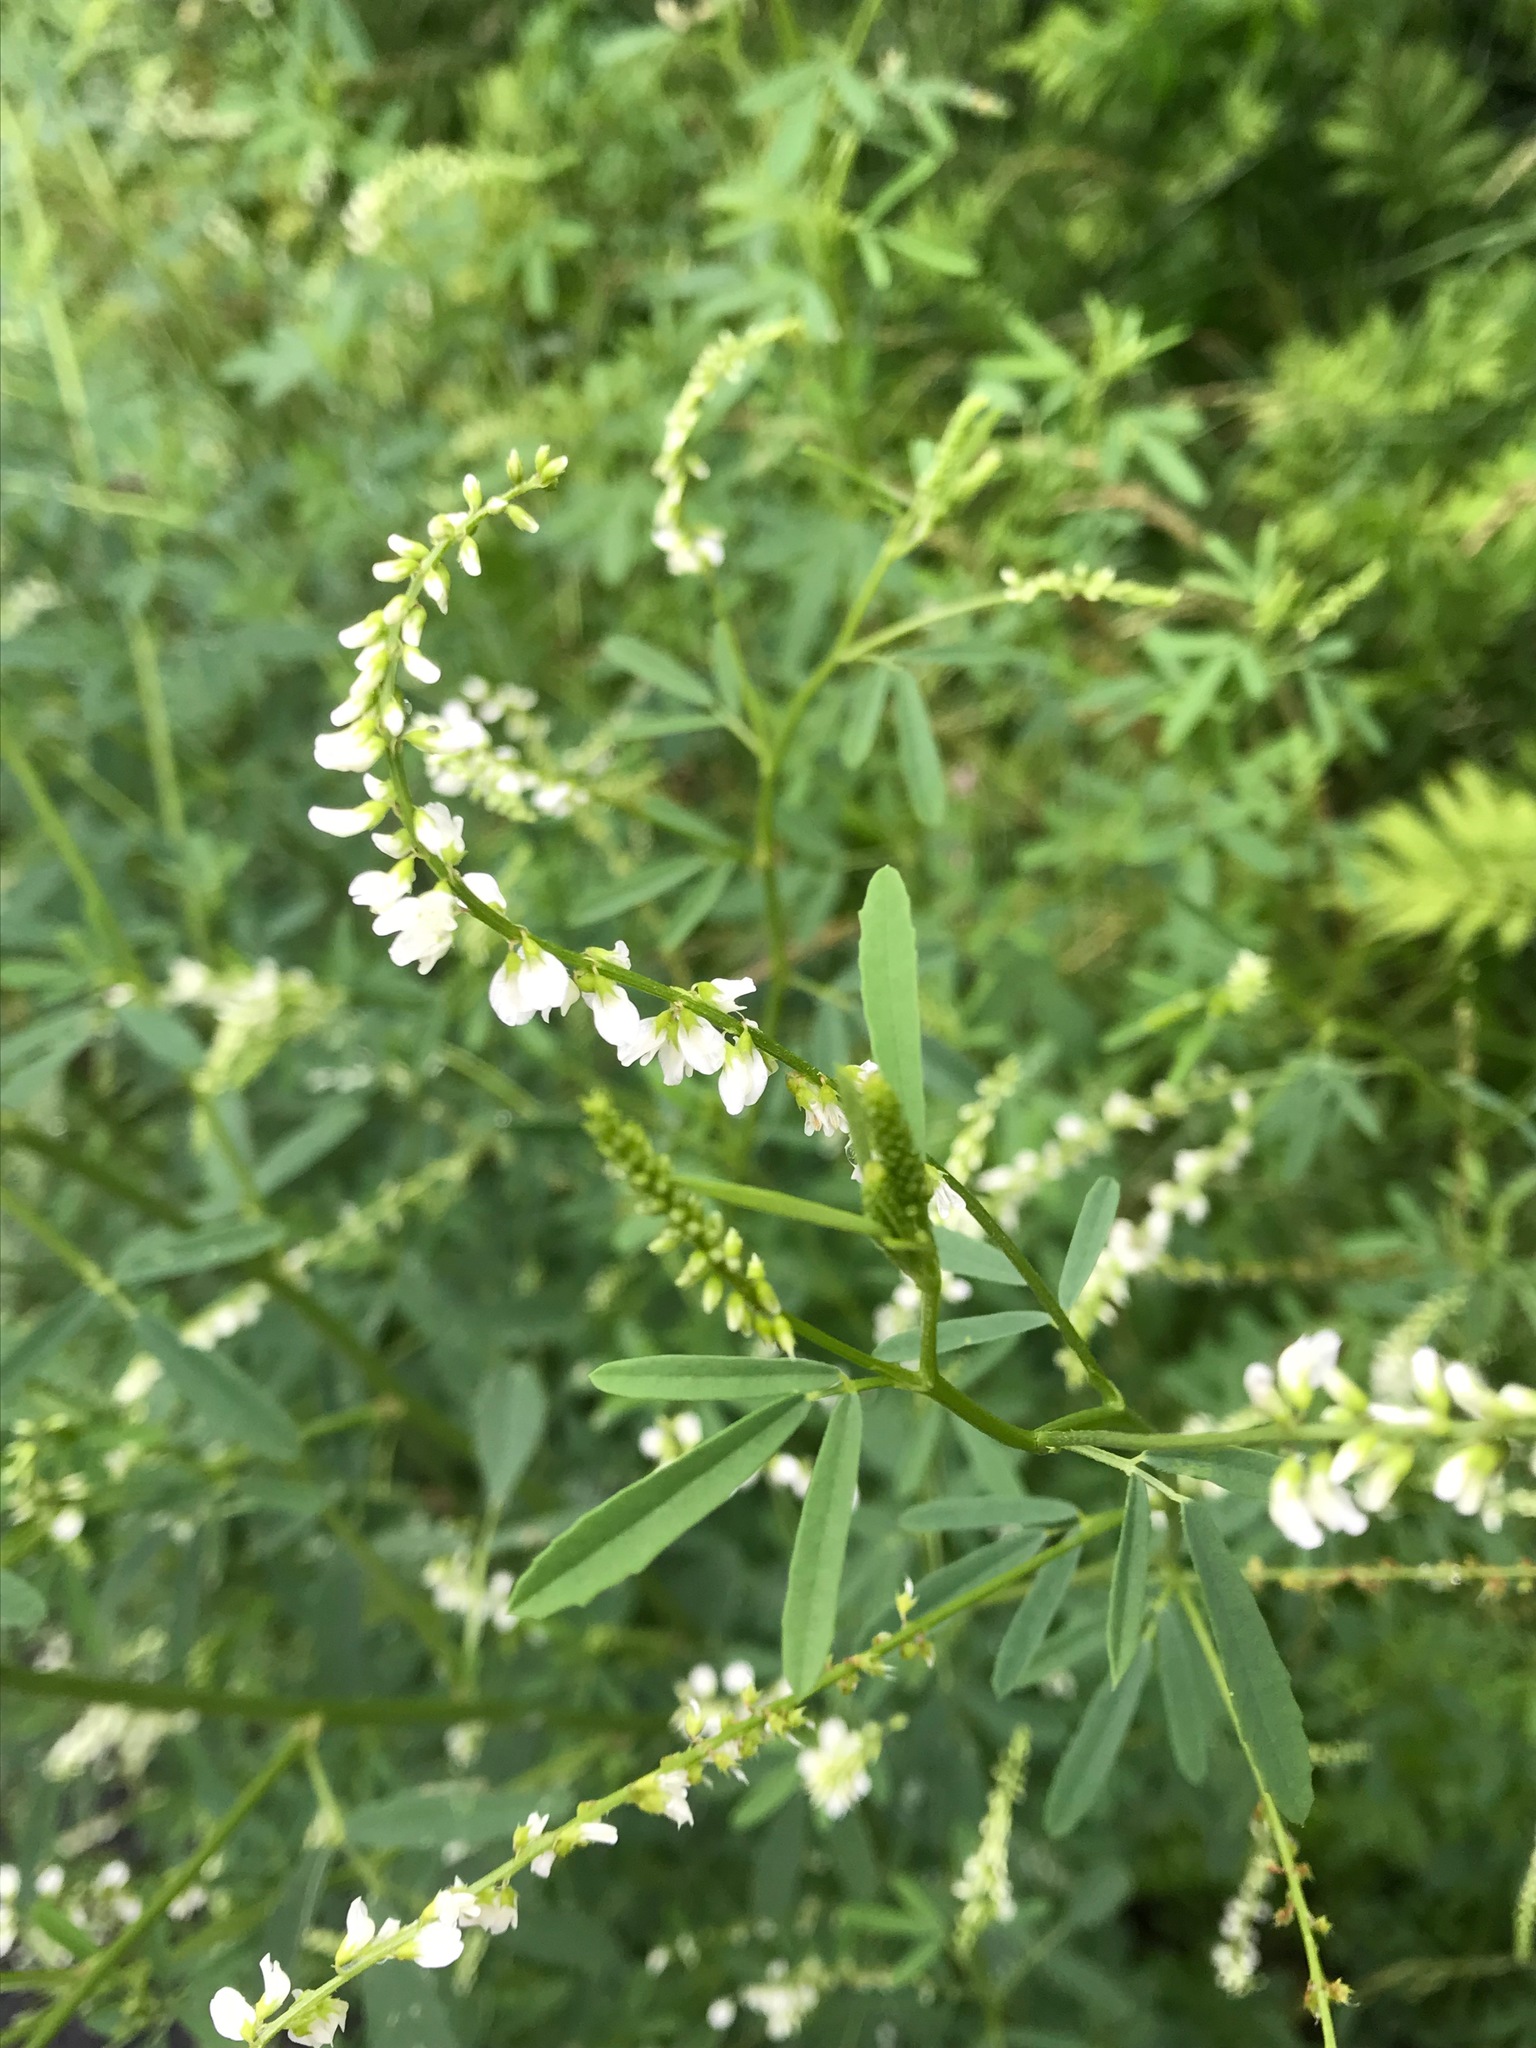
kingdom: Plantae
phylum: Tracheophyta
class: Magnoliopsida
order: Fabales
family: Fabaceae
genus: Melilotus
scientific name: Melilotus albus
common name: White melilot
